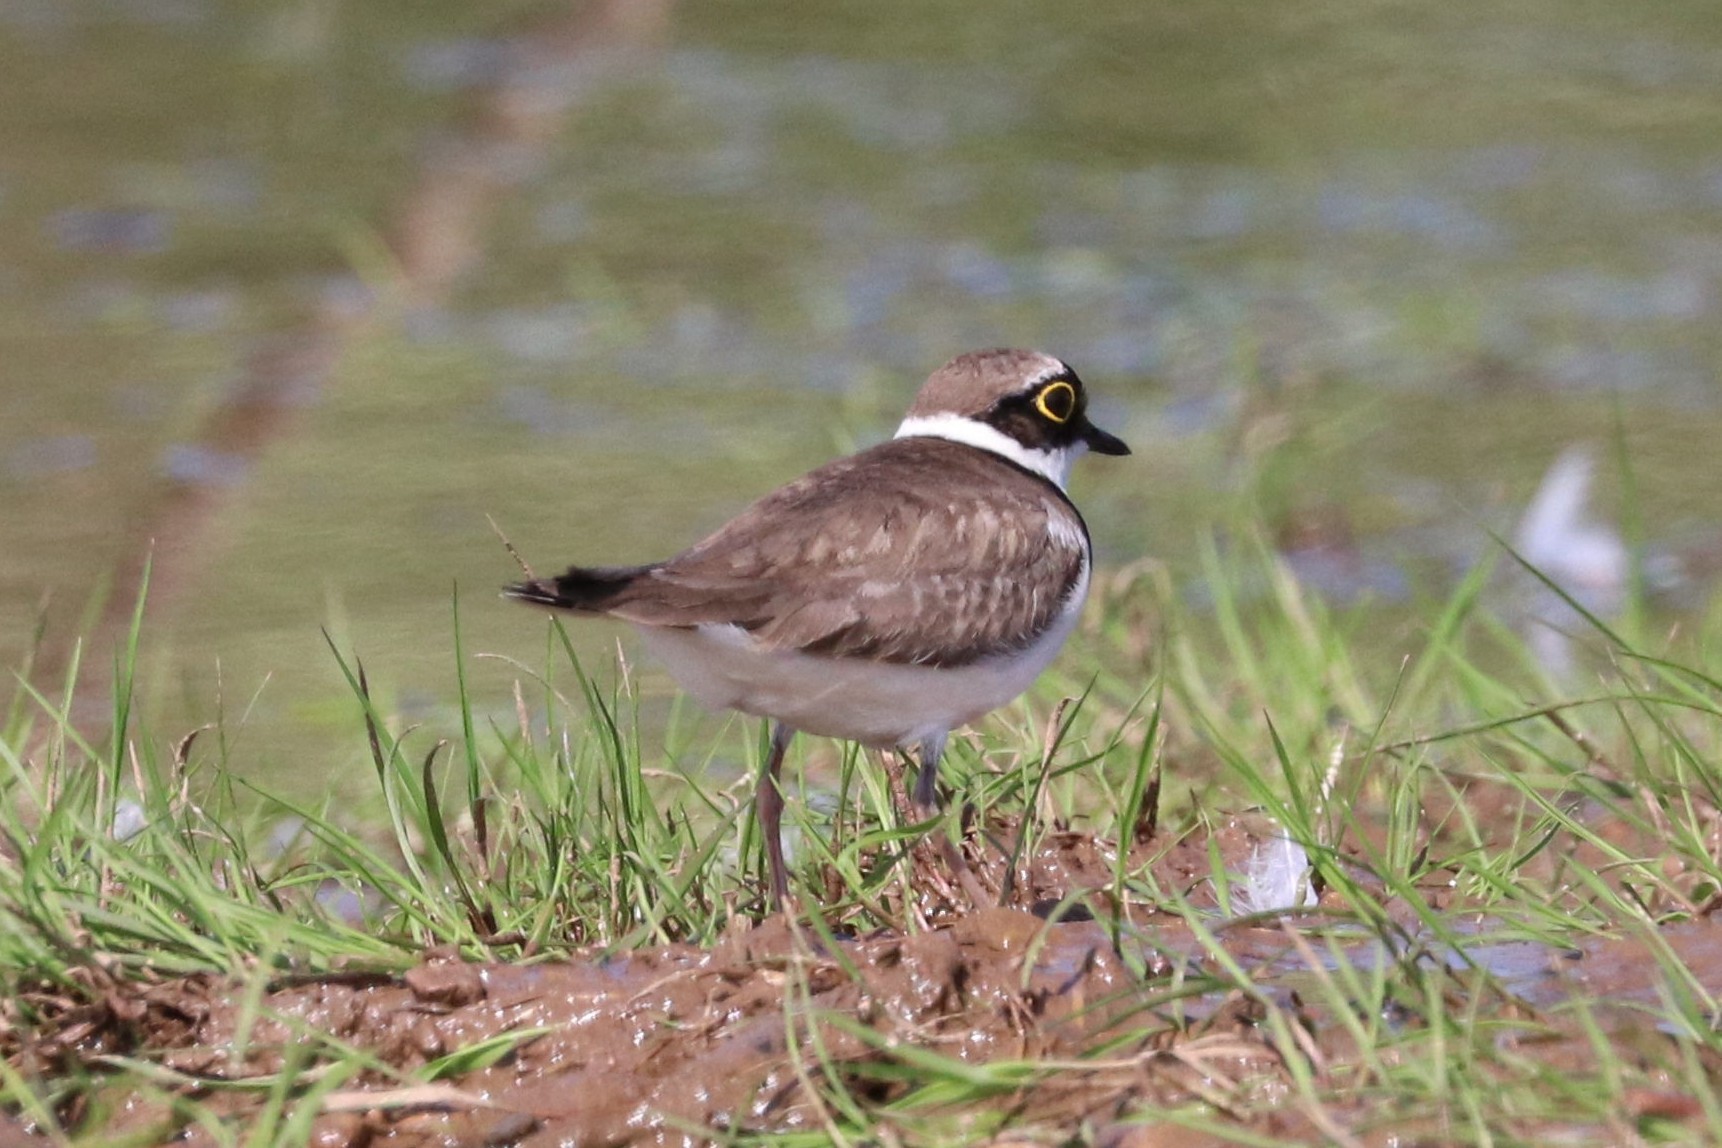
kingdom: Animalia
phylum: Chordata
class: Aves
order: Charadriiformes
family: Charadriidae
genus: Charadrius
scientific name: Charadrius dubius
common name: Little ringed plover
